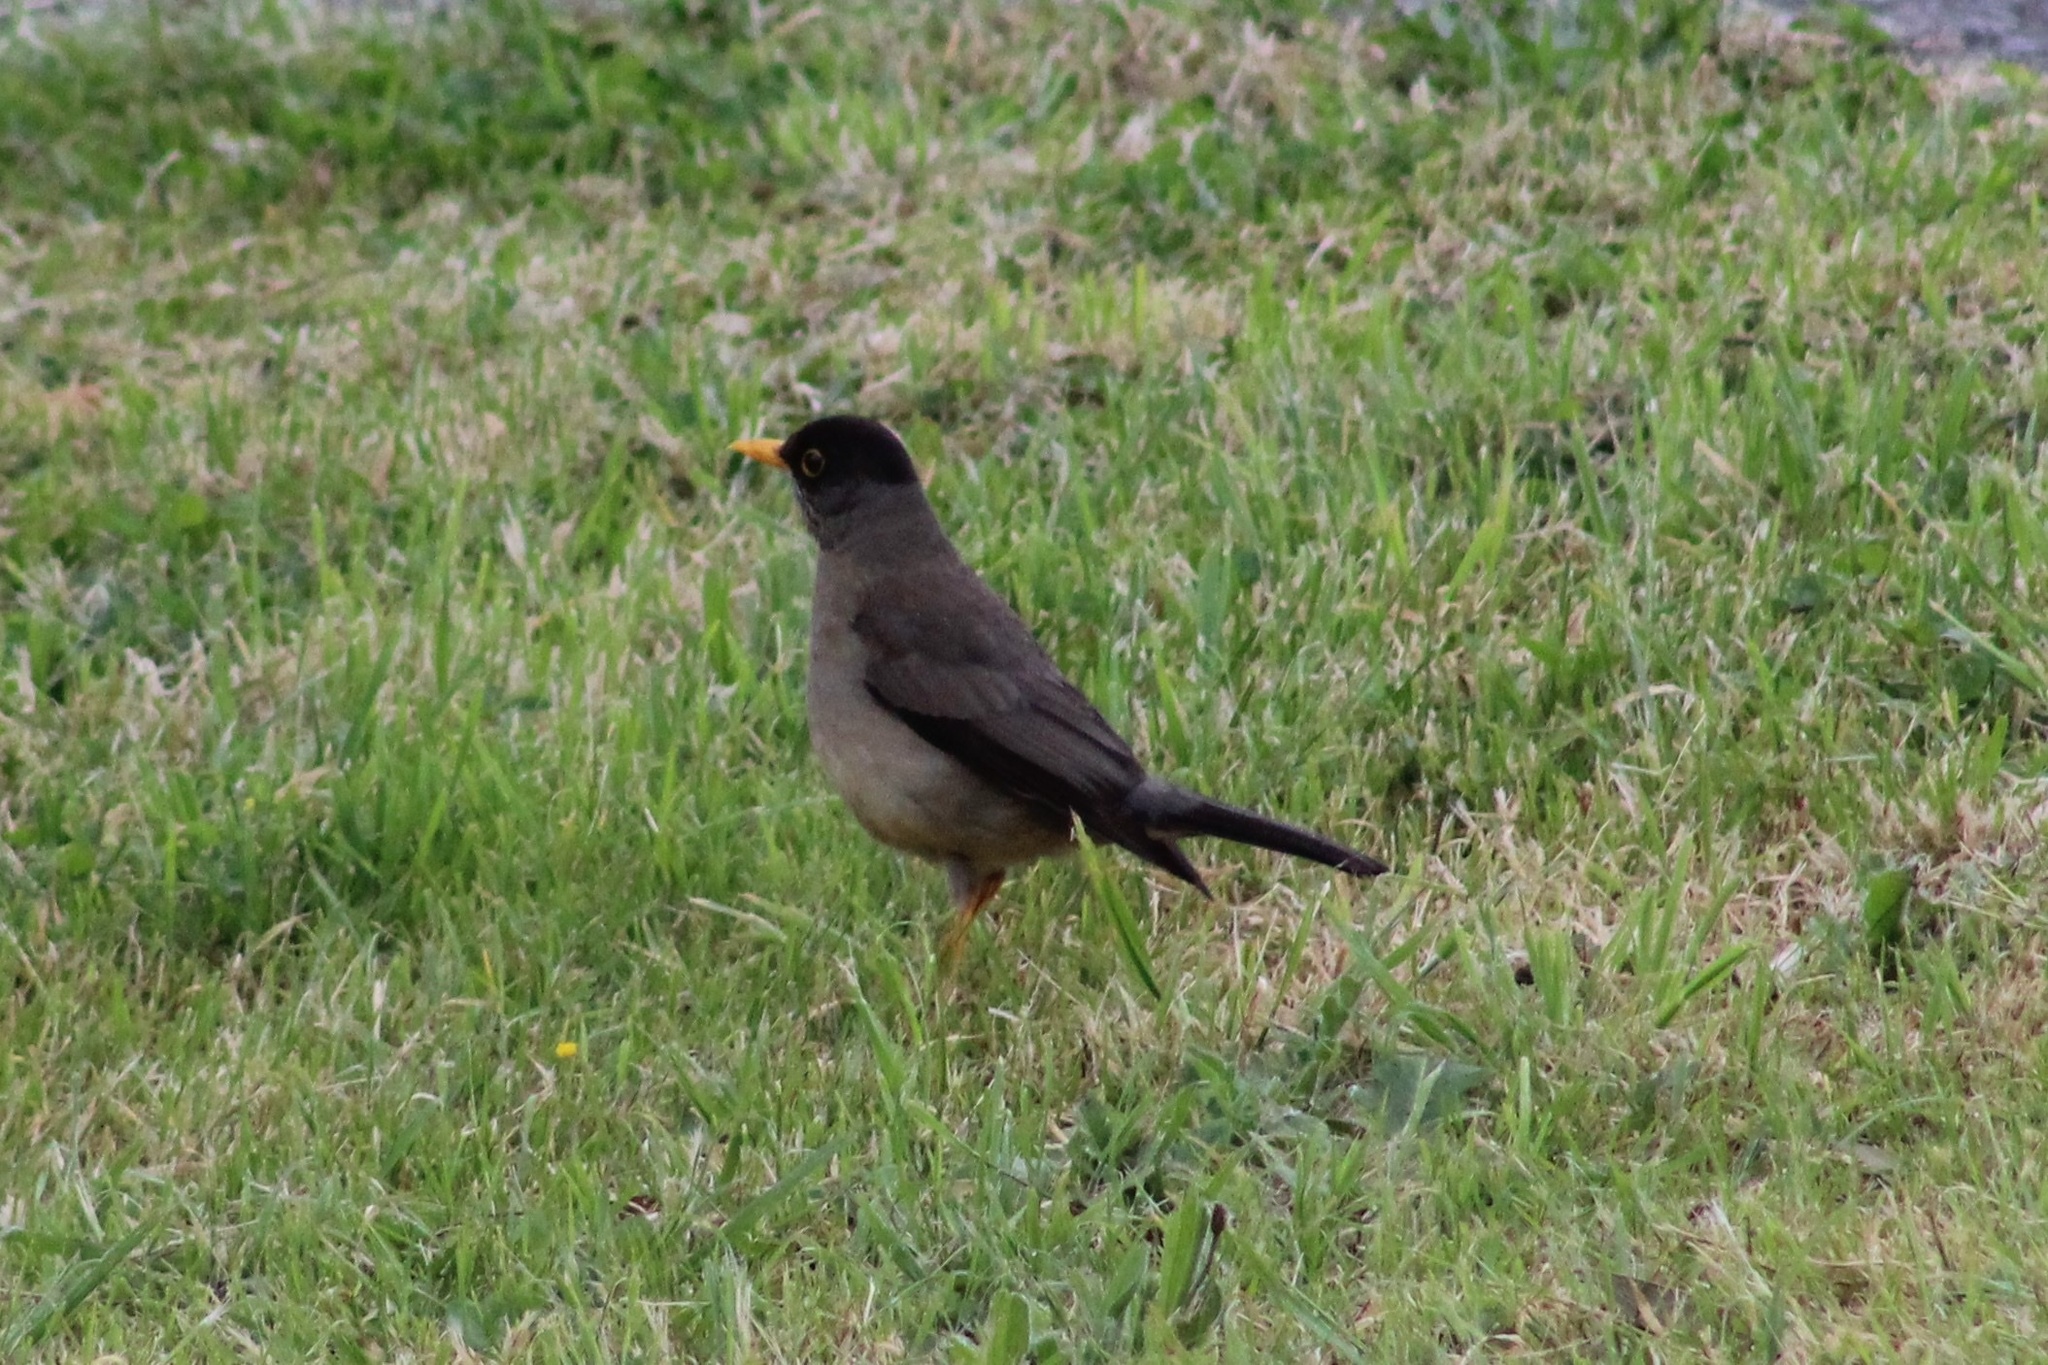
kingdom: Animalia
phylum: Chordata
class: Aves
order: Passeriformes
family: Turdidae
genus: Turdus
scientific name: Turdus falcklandii
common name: Austral thrush
